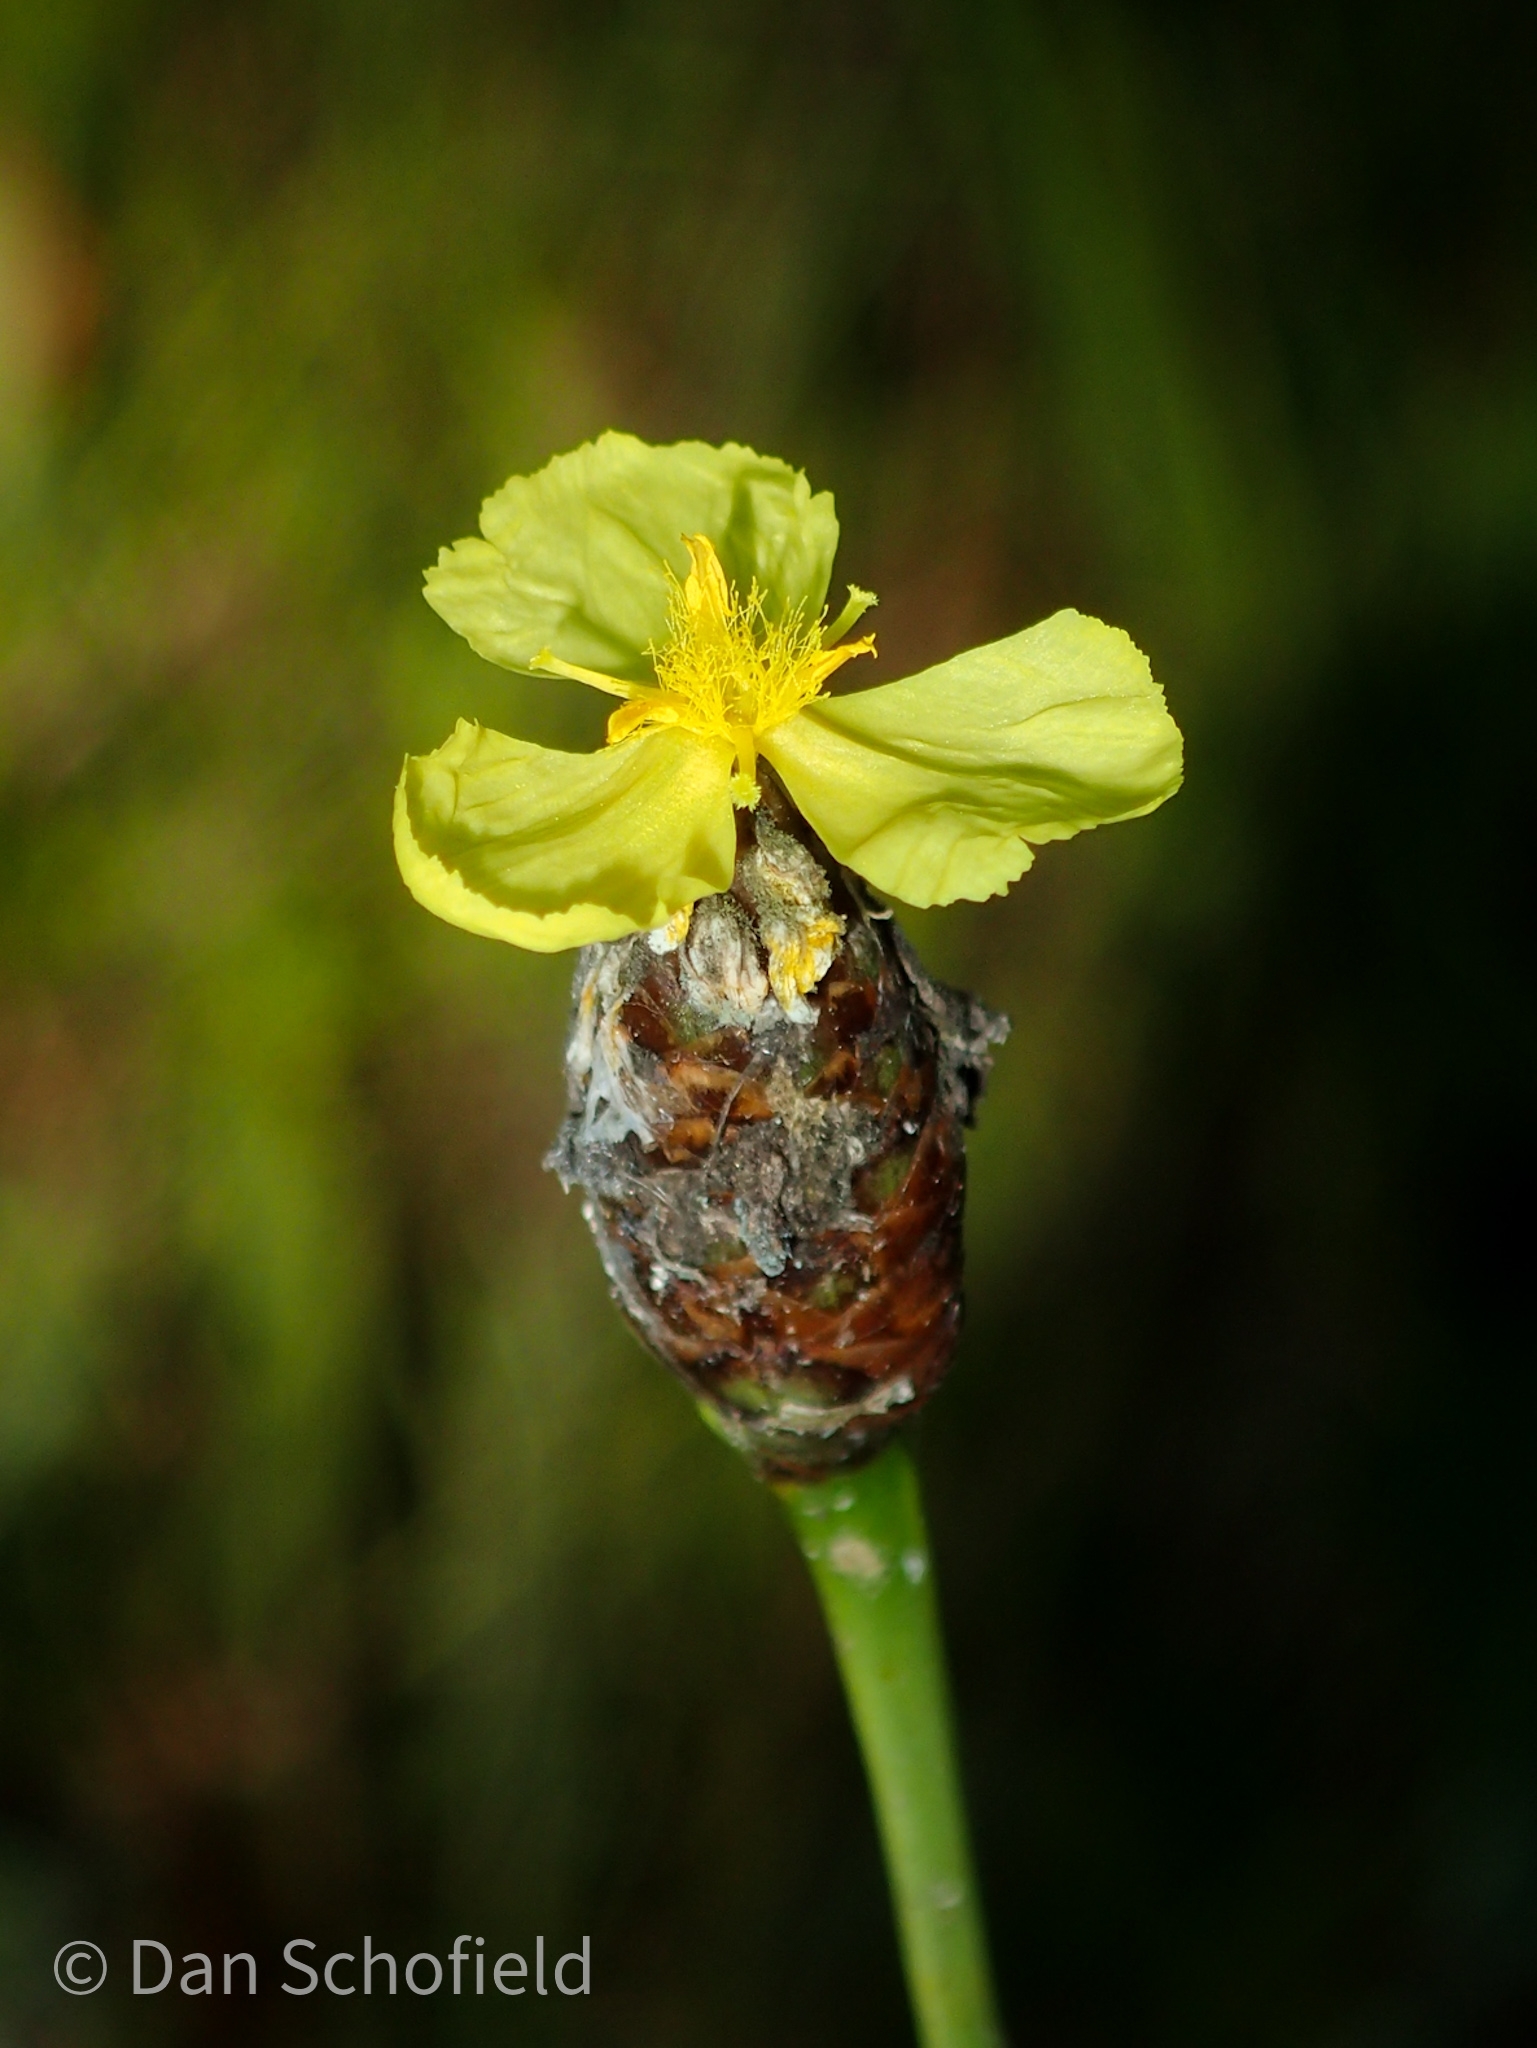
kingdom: Plantae
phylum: Tracheophyta
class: Liliopsida
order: Poales
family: Xyridaceae
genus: Xyris
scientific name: Xyris ambigua
